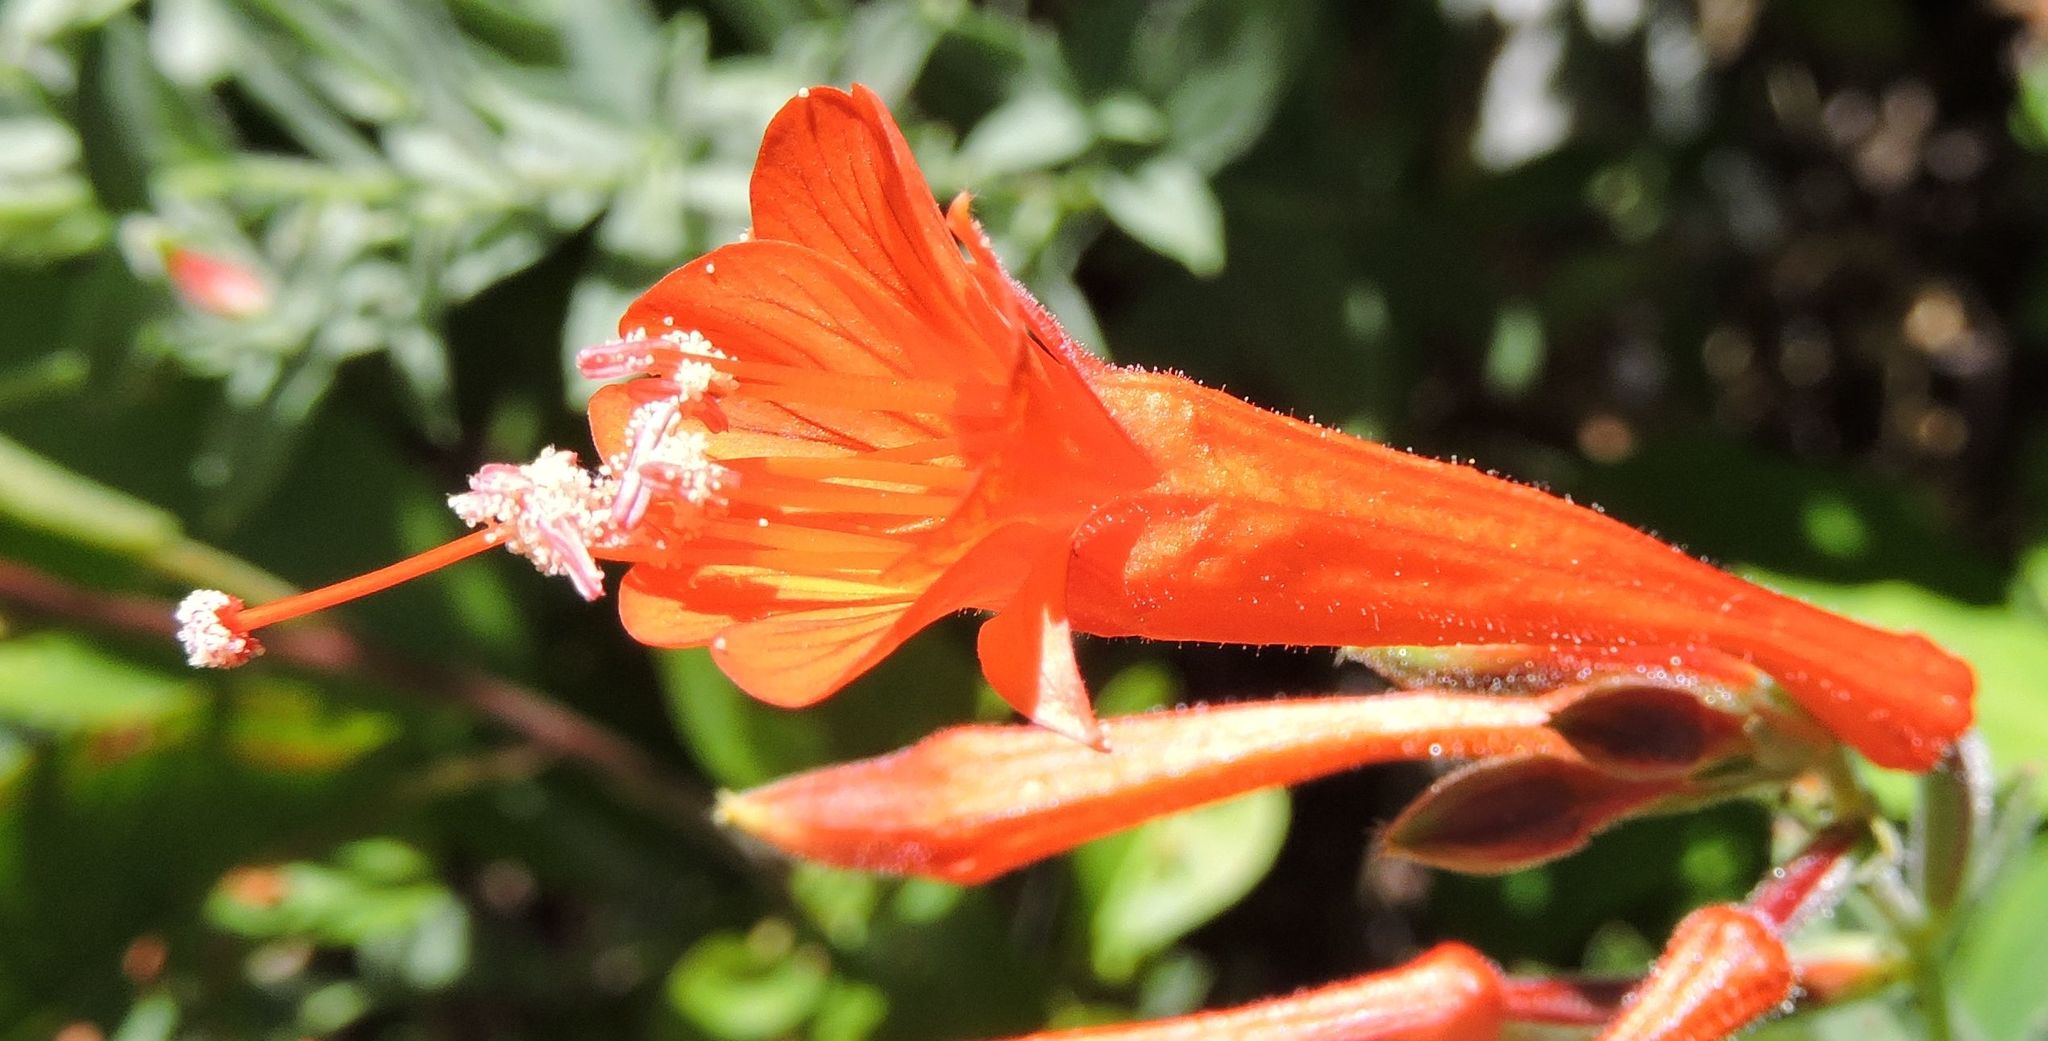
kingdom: Plantae
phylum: Tracheophyta
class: Magnoliopsida
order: Myrtales
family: Onagraceae
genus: Epilobium
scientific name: Epilobium canum
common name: California-fuchsia
